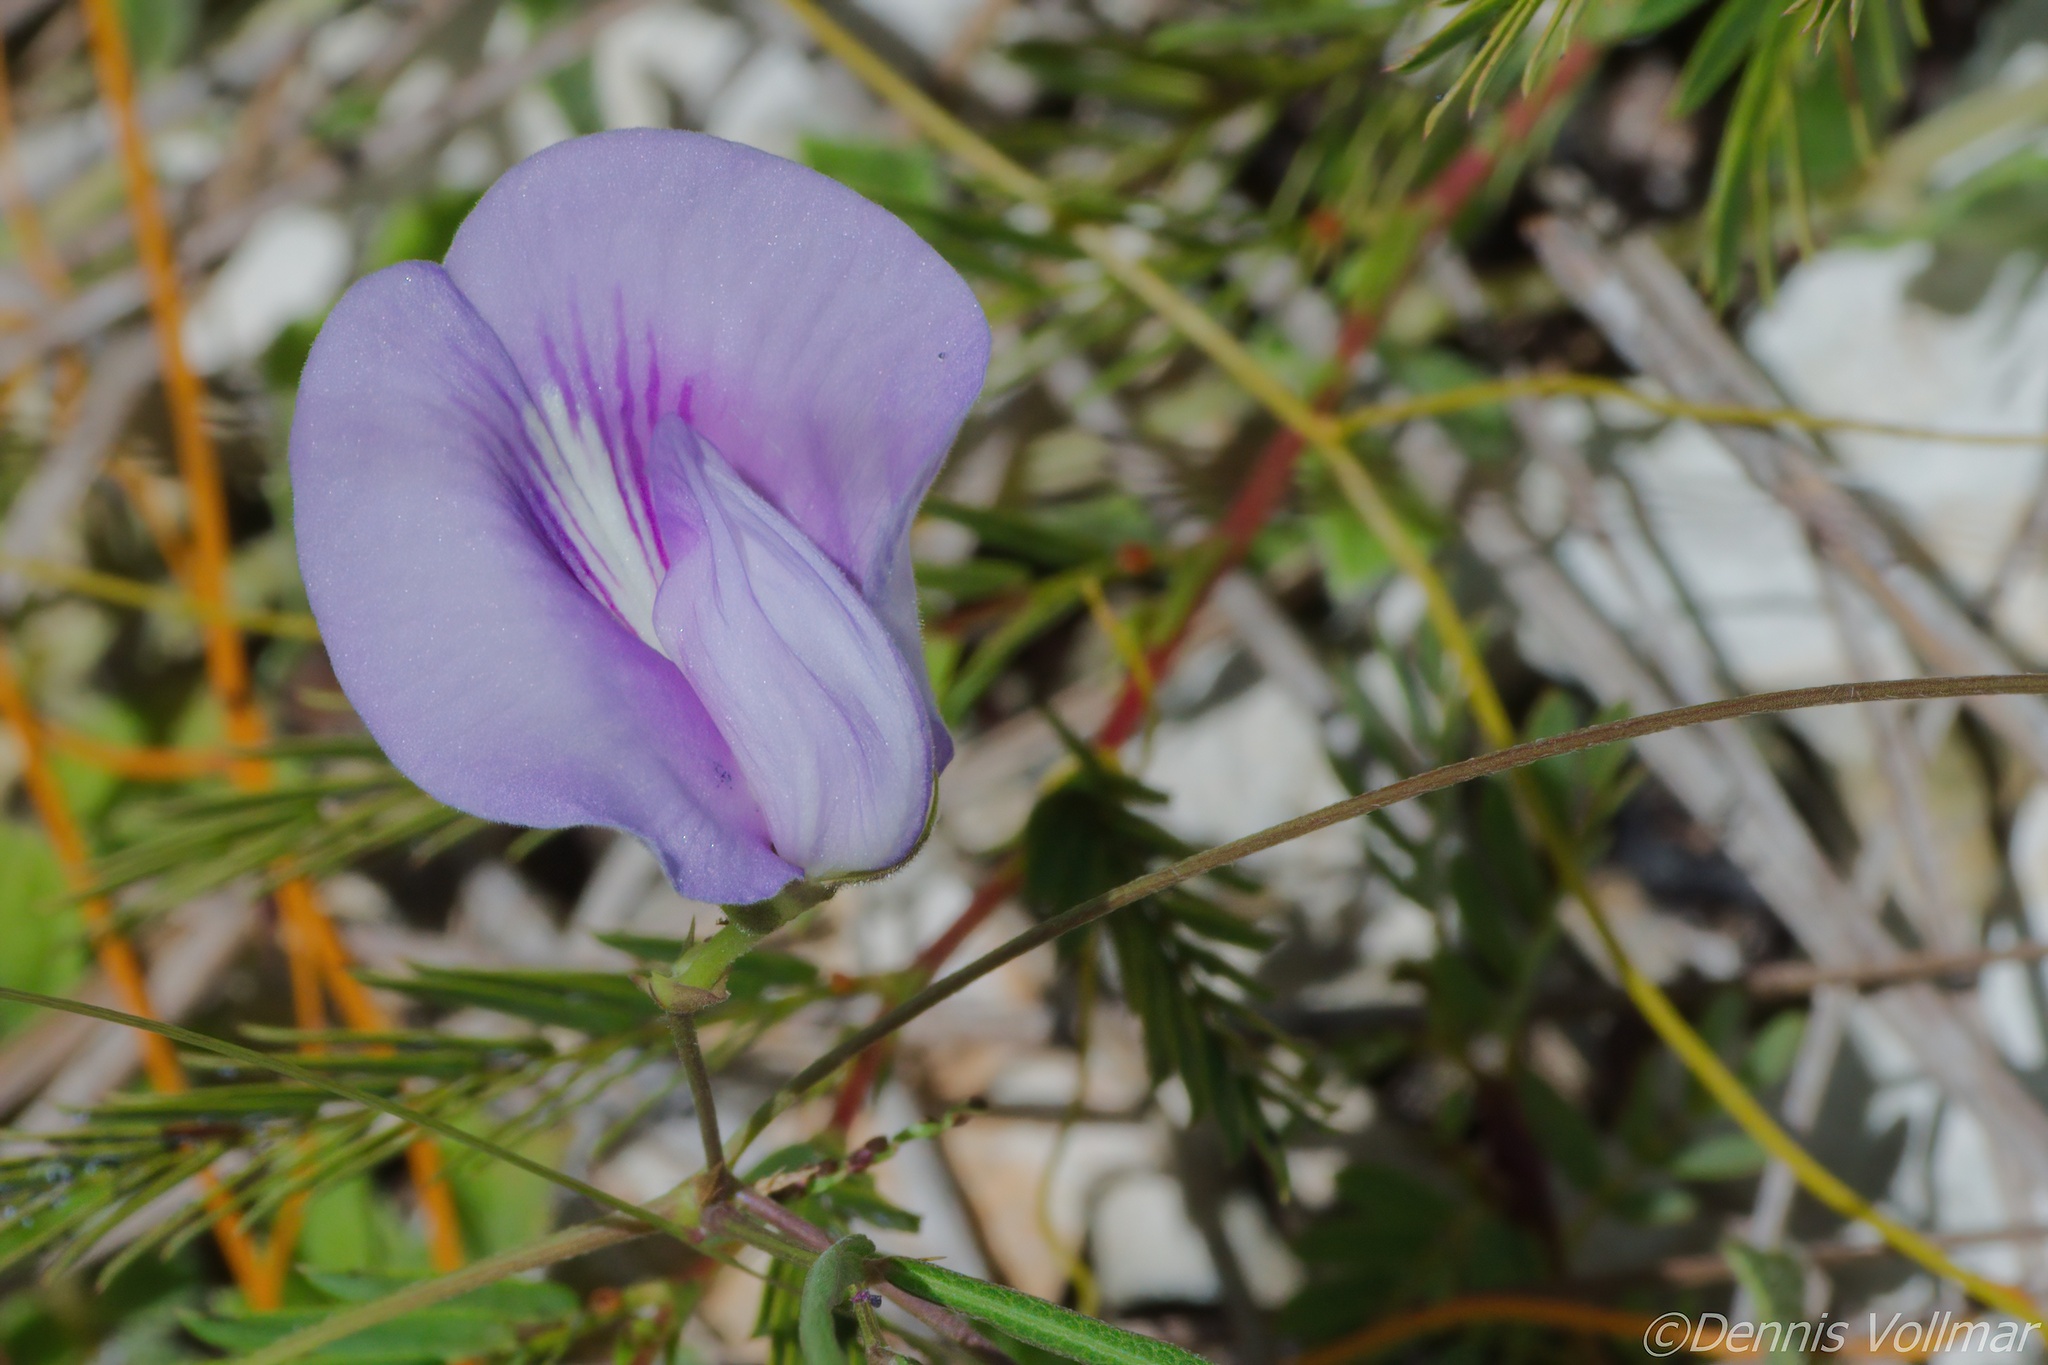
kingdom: Plantae
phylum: Tracheophyta
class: Magnoliopsida
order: Fabales
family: Fabaceae
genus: Centrosema
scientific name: Centrosema virginianum
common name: Butterfly-pea
